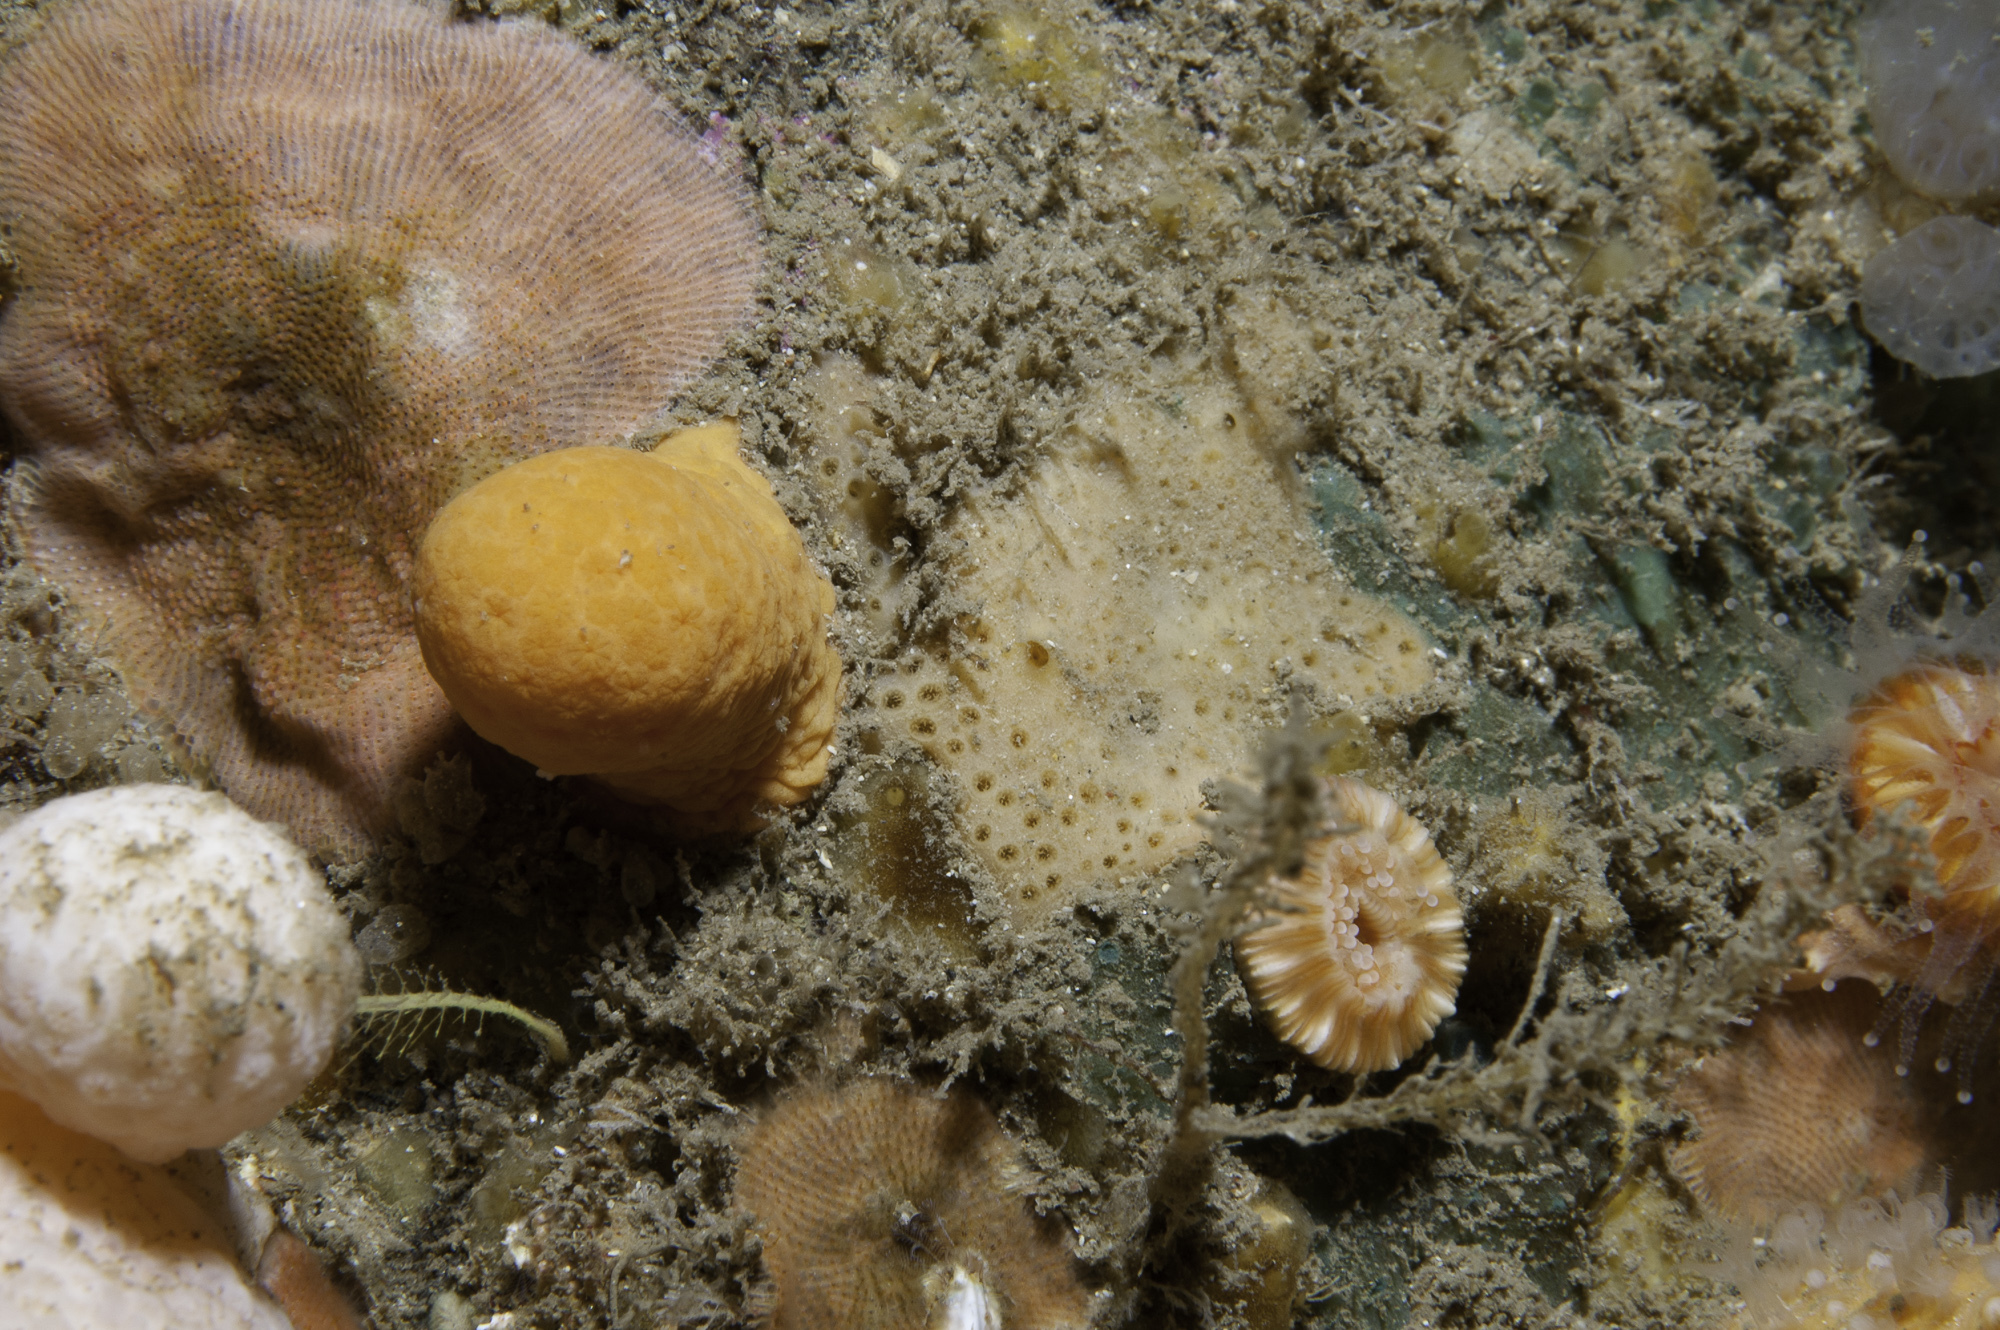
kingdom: Animalia
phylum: Porifera
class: Demospongiae
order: Poecilosclerida
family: Crellidae
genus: Crella
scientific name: Crella plana
